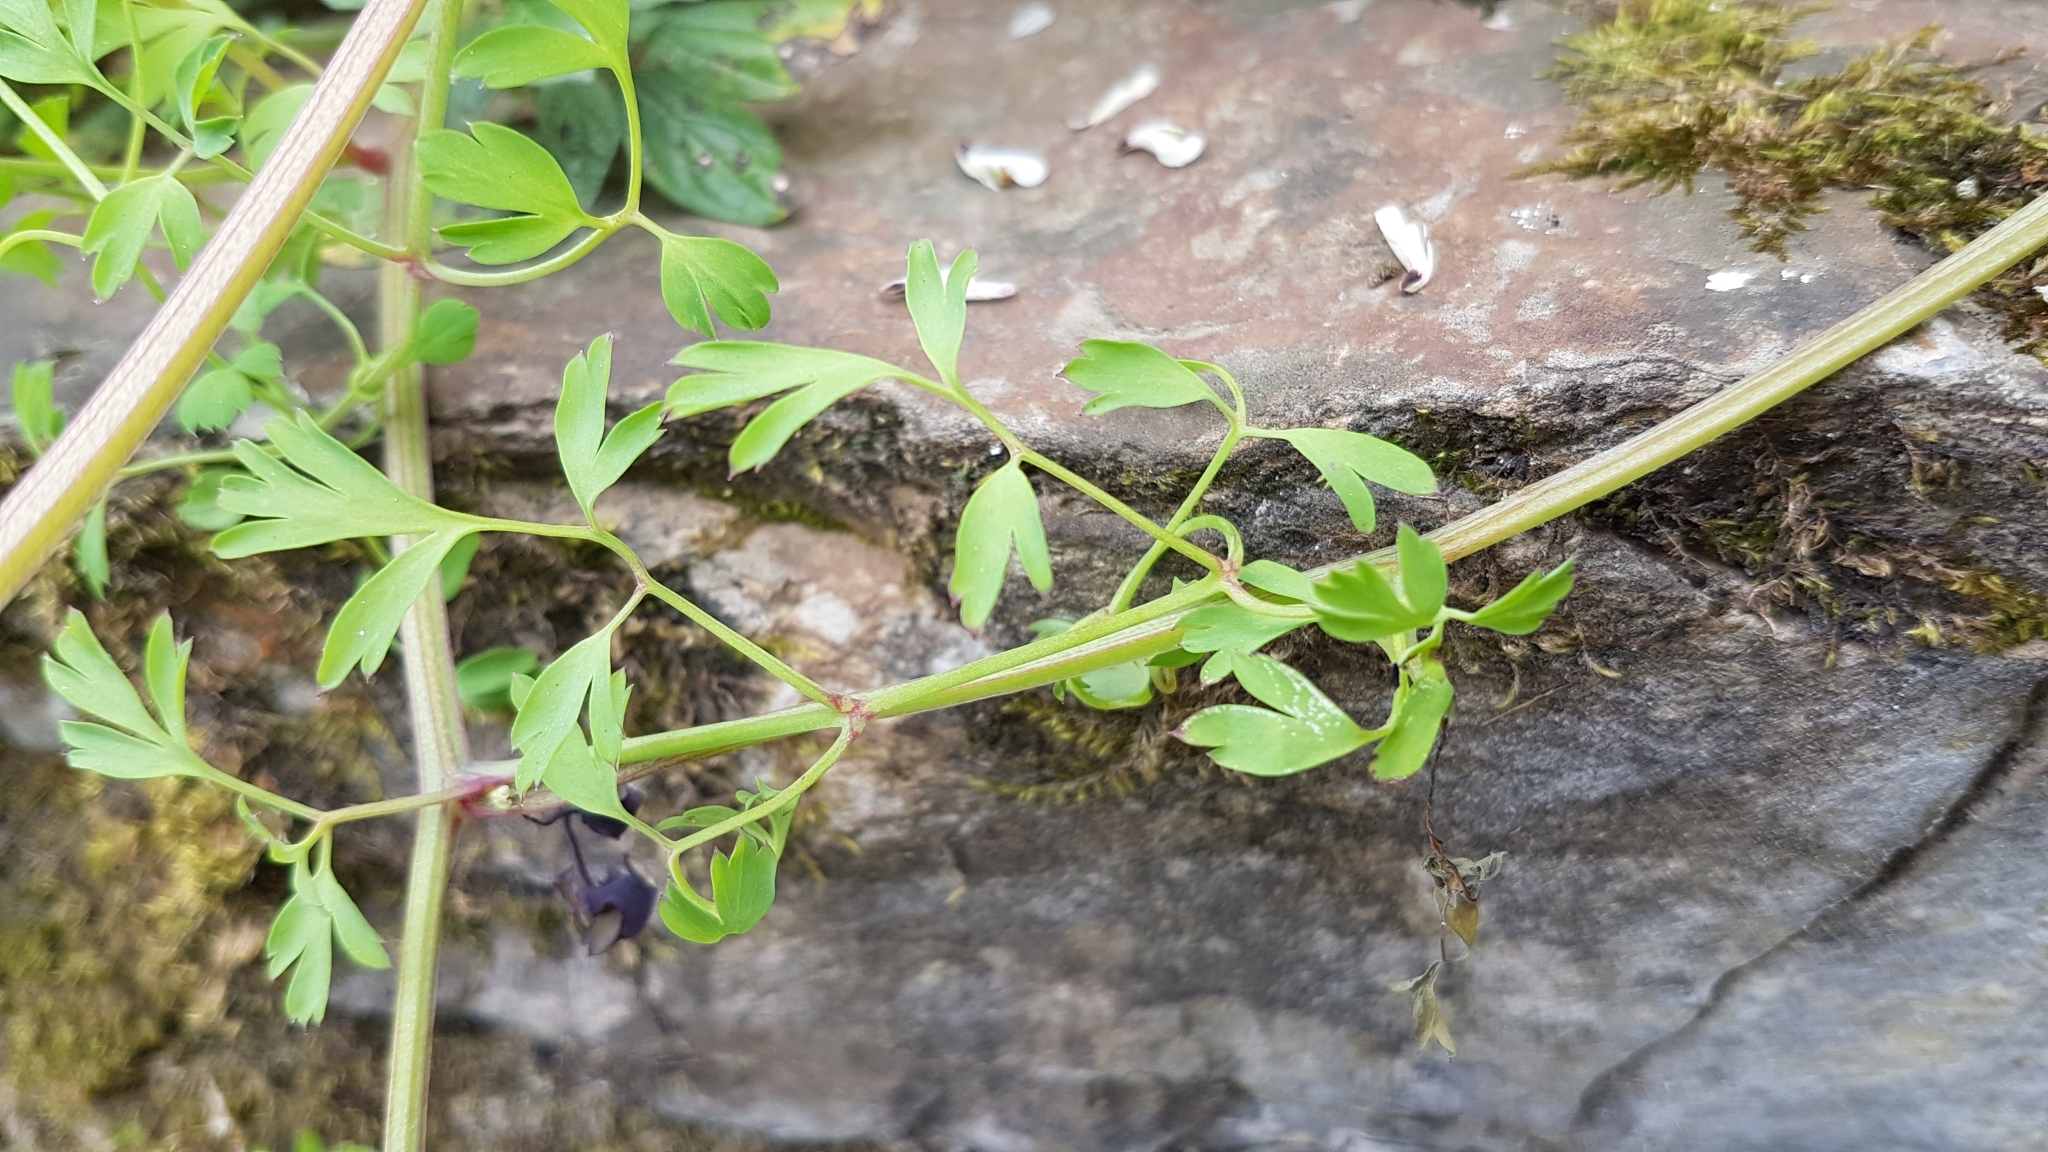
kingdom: Plantae
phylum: Tracheophyta
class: Magnoliopsida
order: Ranunculales
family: Papaveraceae
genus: Fumaria
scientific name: Fumaria capreolata
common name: White ramping-fumitory
